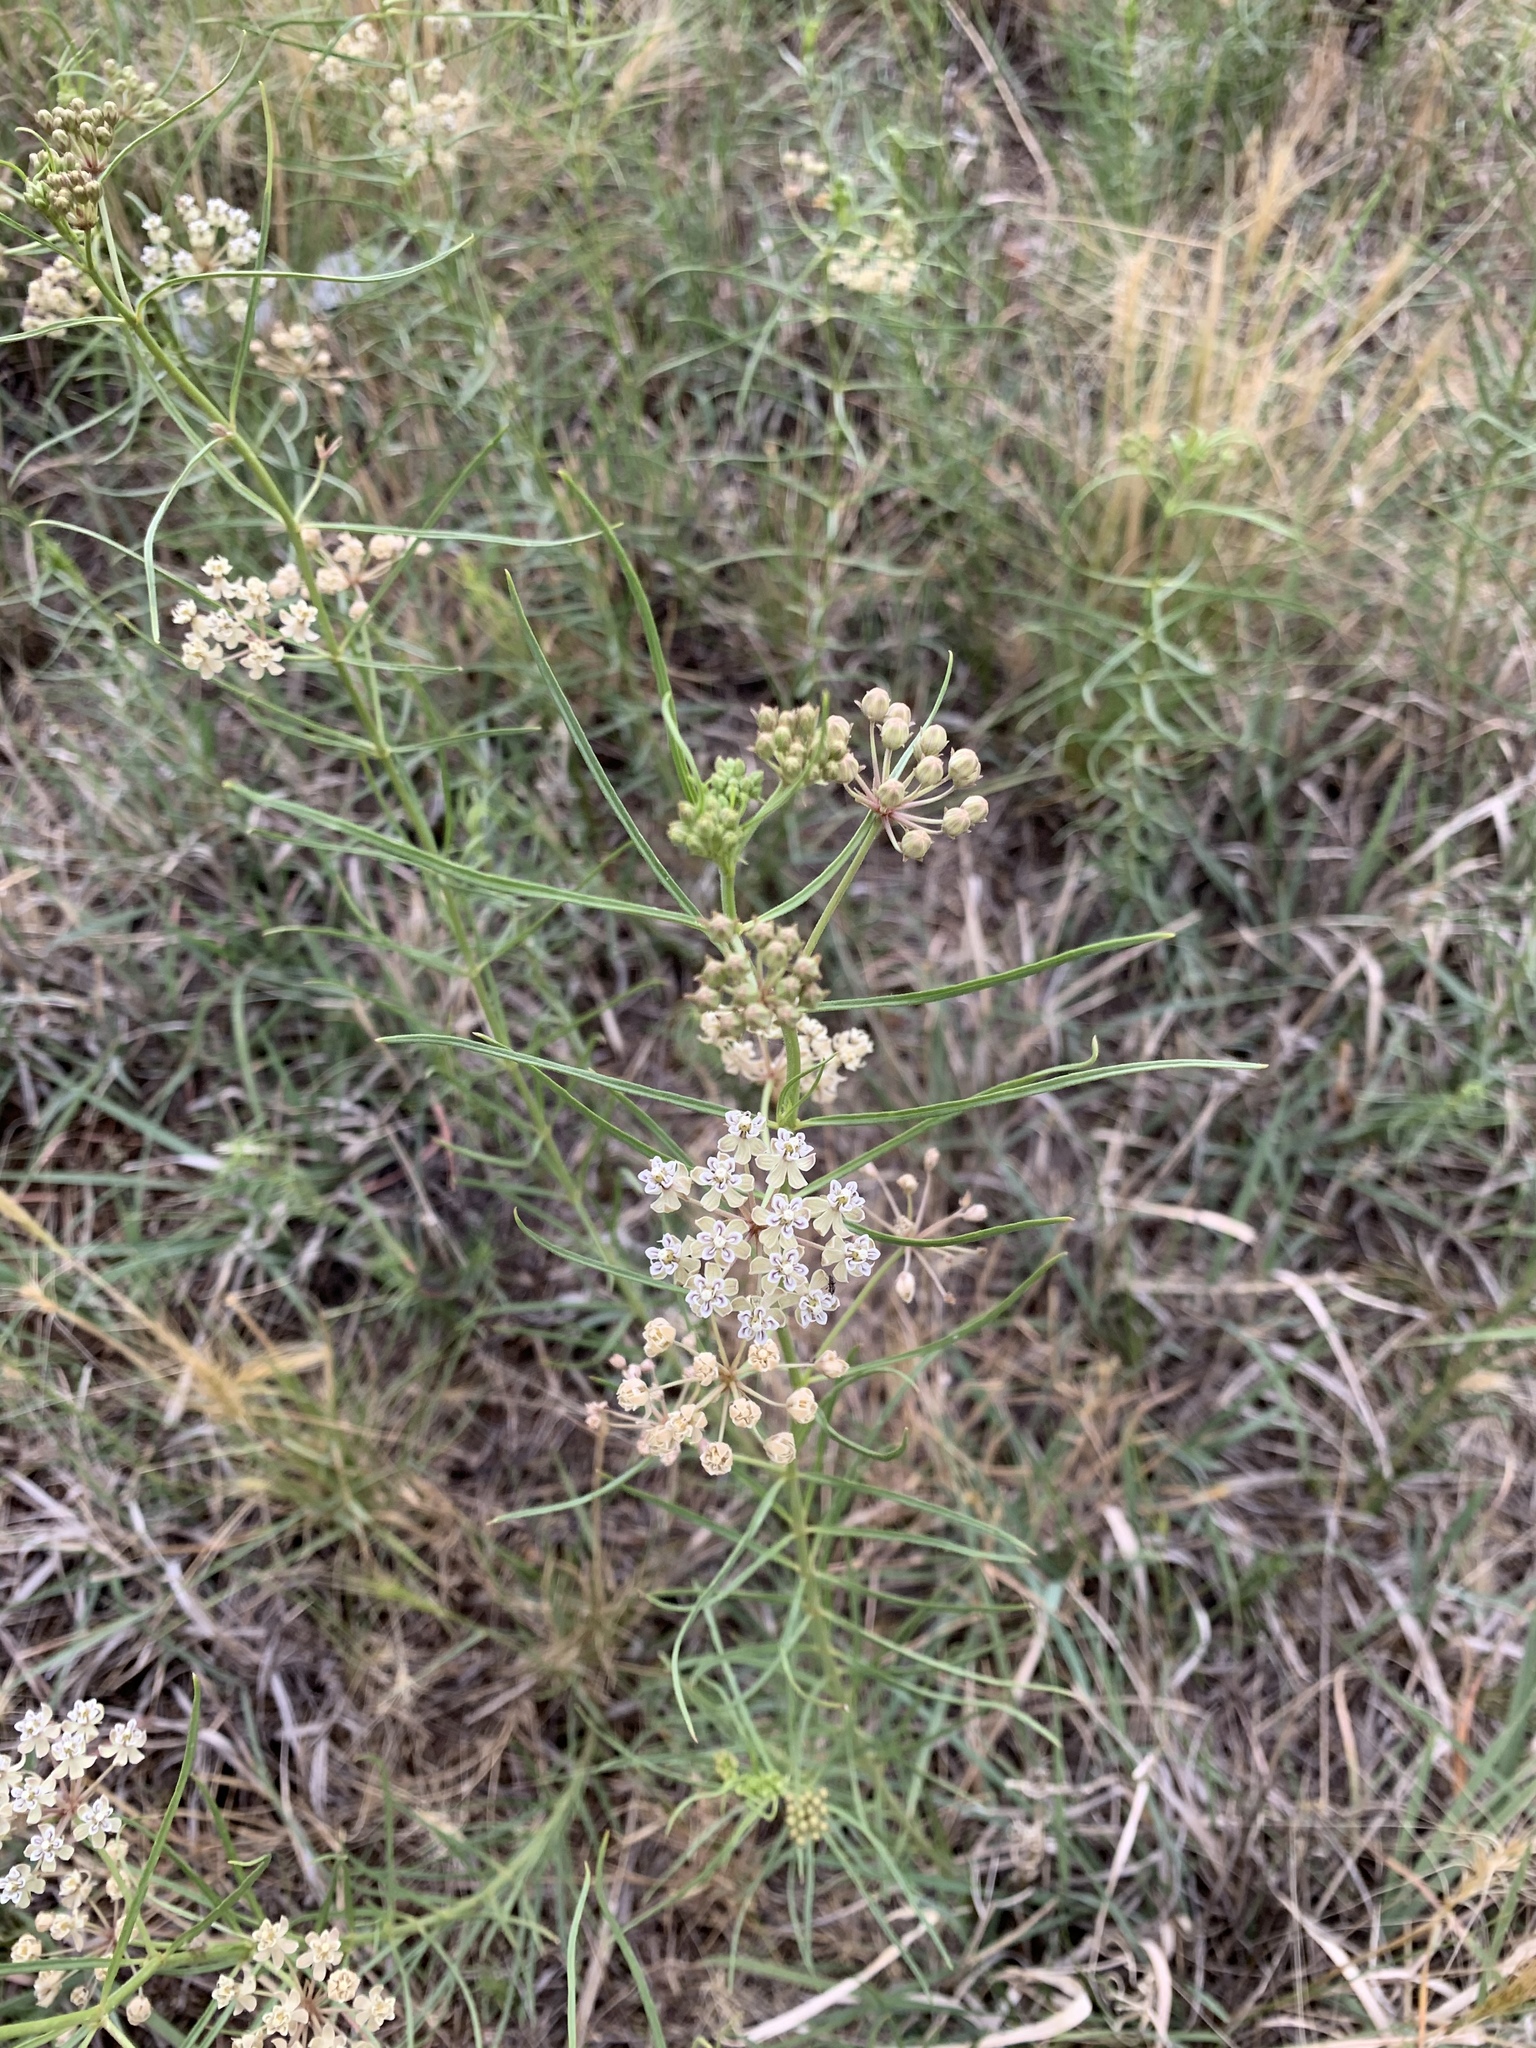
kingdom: Plantae
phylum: Tracheophyta
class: Magnoliopsida
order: Gentianales
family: Apocynaceae
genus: Asclepias
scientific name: Asclepias subverticillata
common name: Horsetail milkweed
